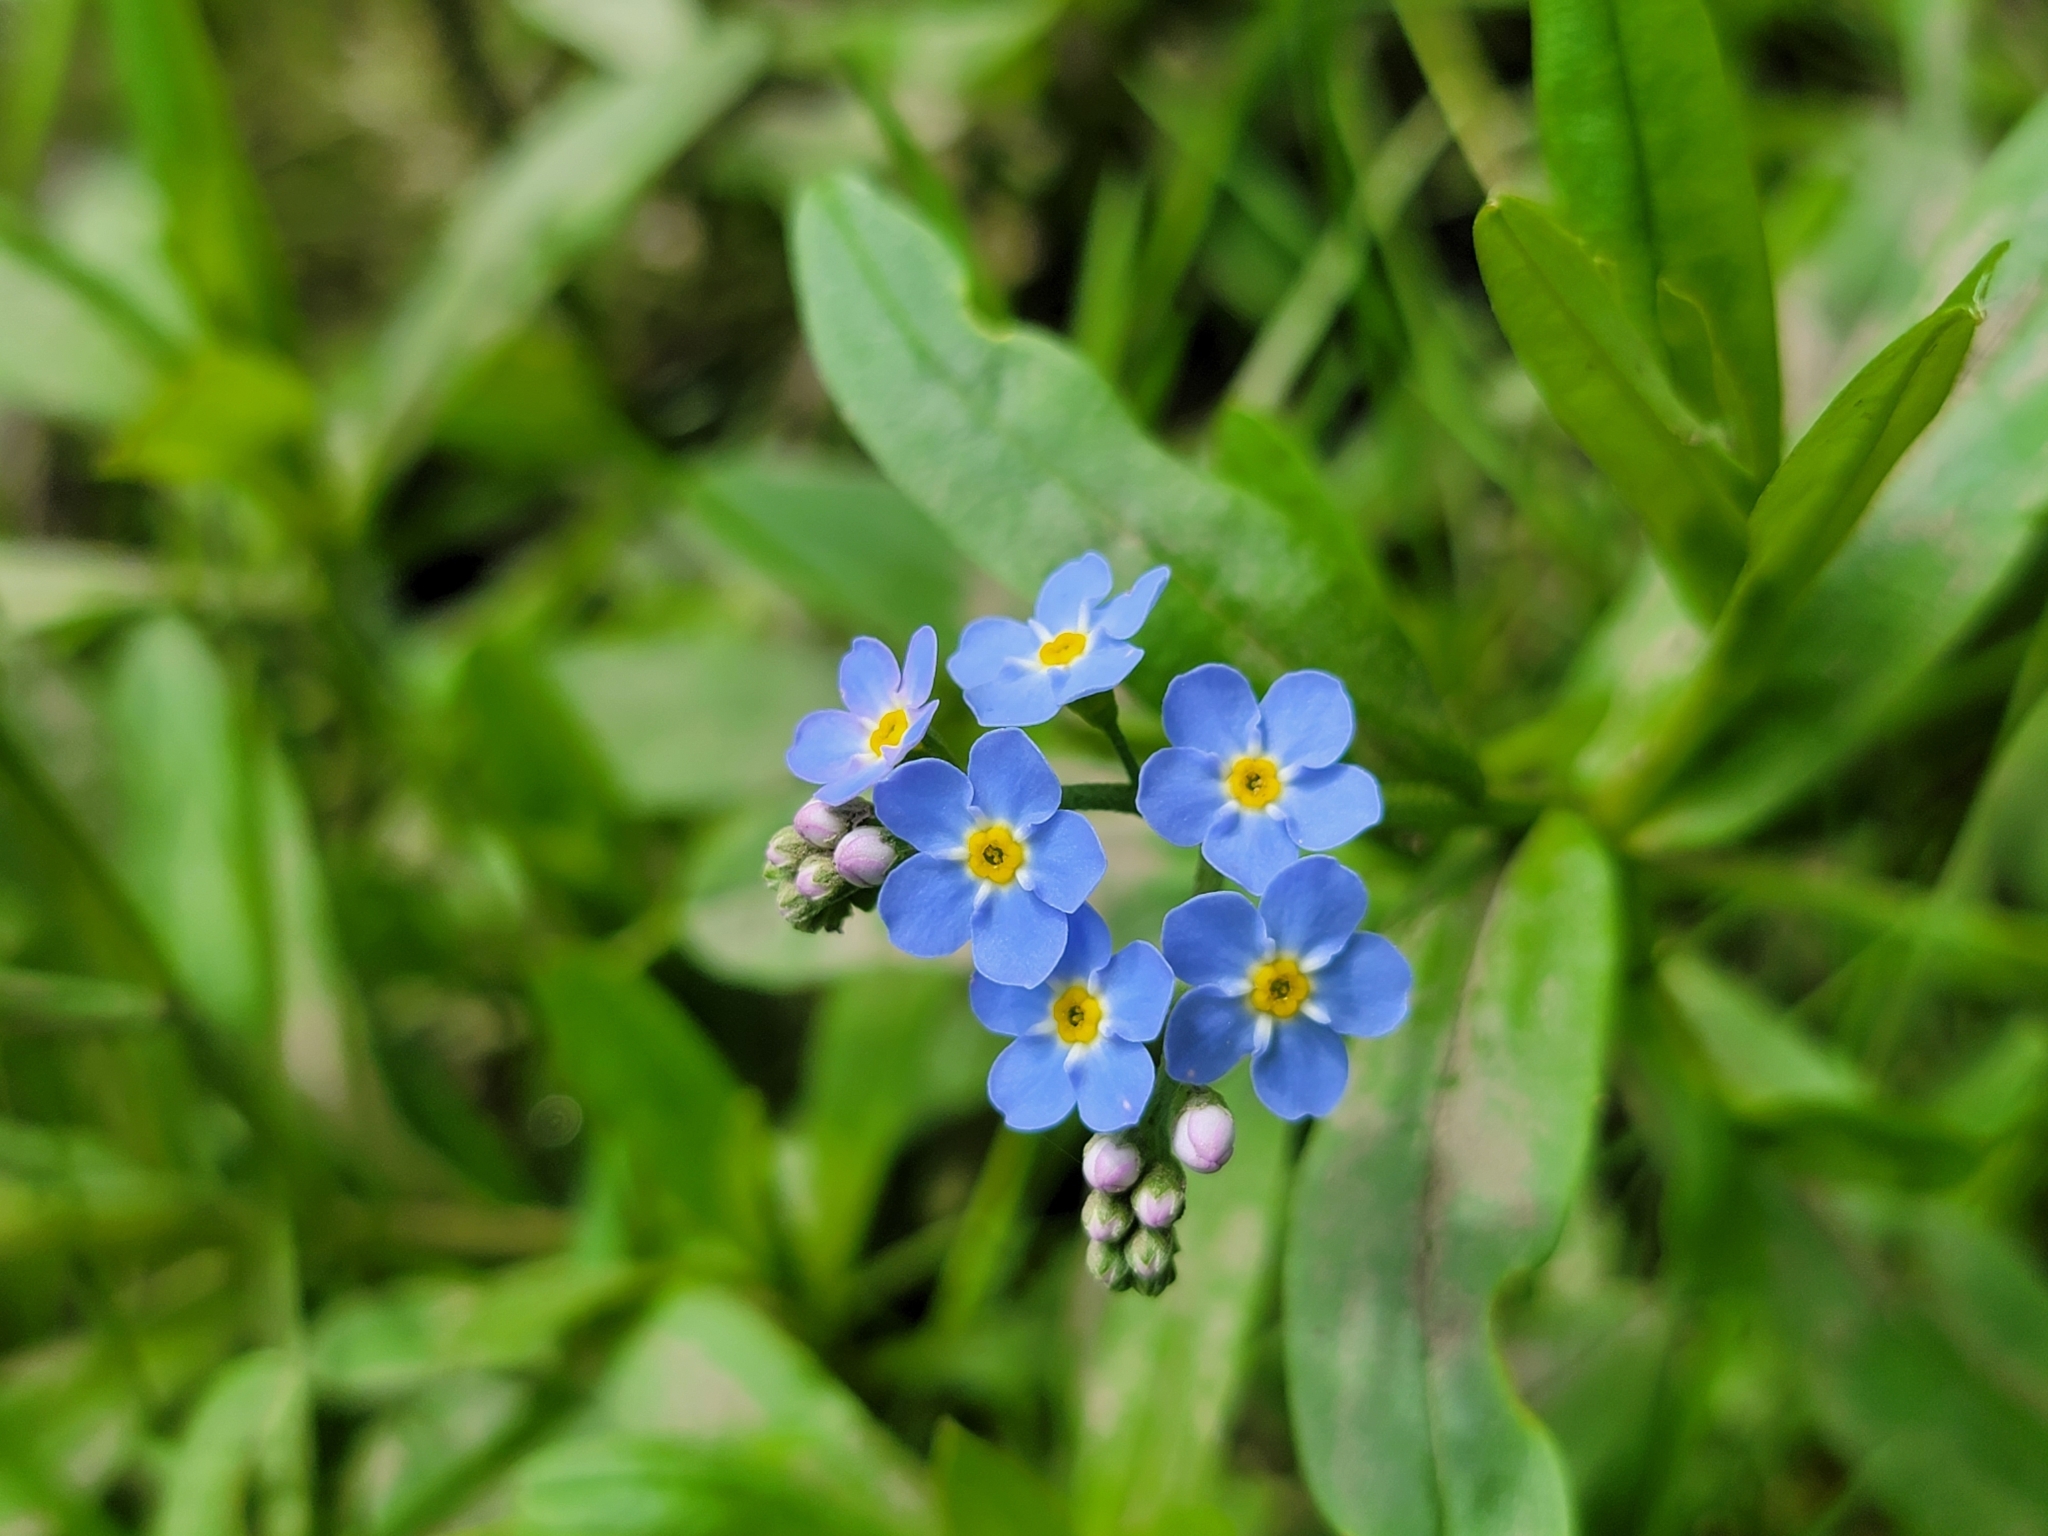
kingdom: Plantae
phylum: Tracheophyta
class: Magnoliopsida
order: Boraginales
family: Boraginaceae
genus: Myosotis
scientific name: Myosotis scorpioides
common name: Water forget-me-not
